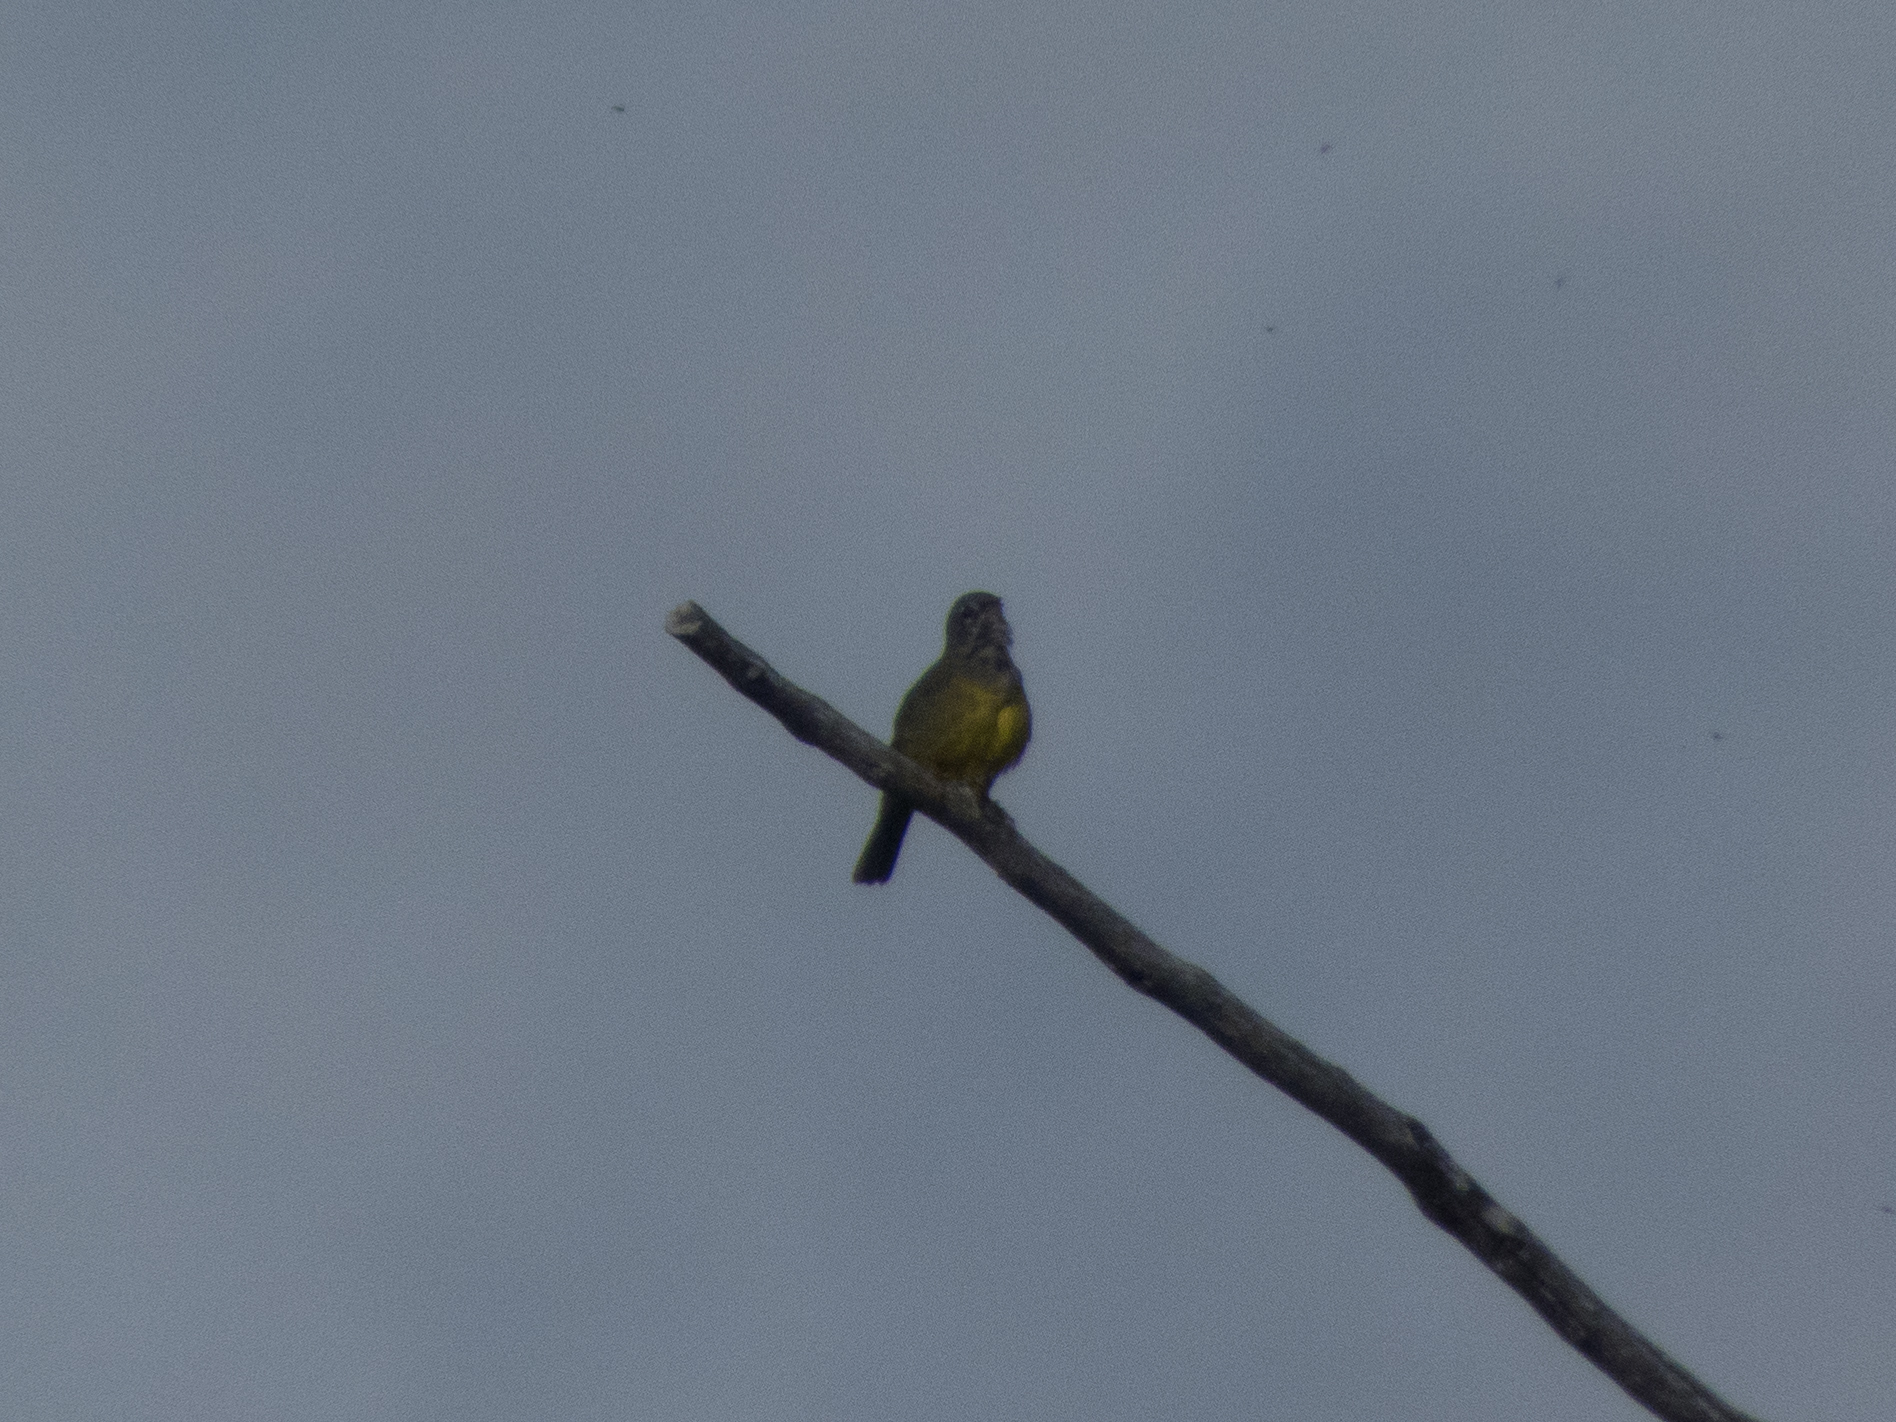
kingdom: Animalia
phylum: Chordata
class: Aves
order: Passeriformes
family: Parulidae
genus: Geothlypis
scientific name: Geothlypis tolmiei
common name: Macgillivray's warbler
